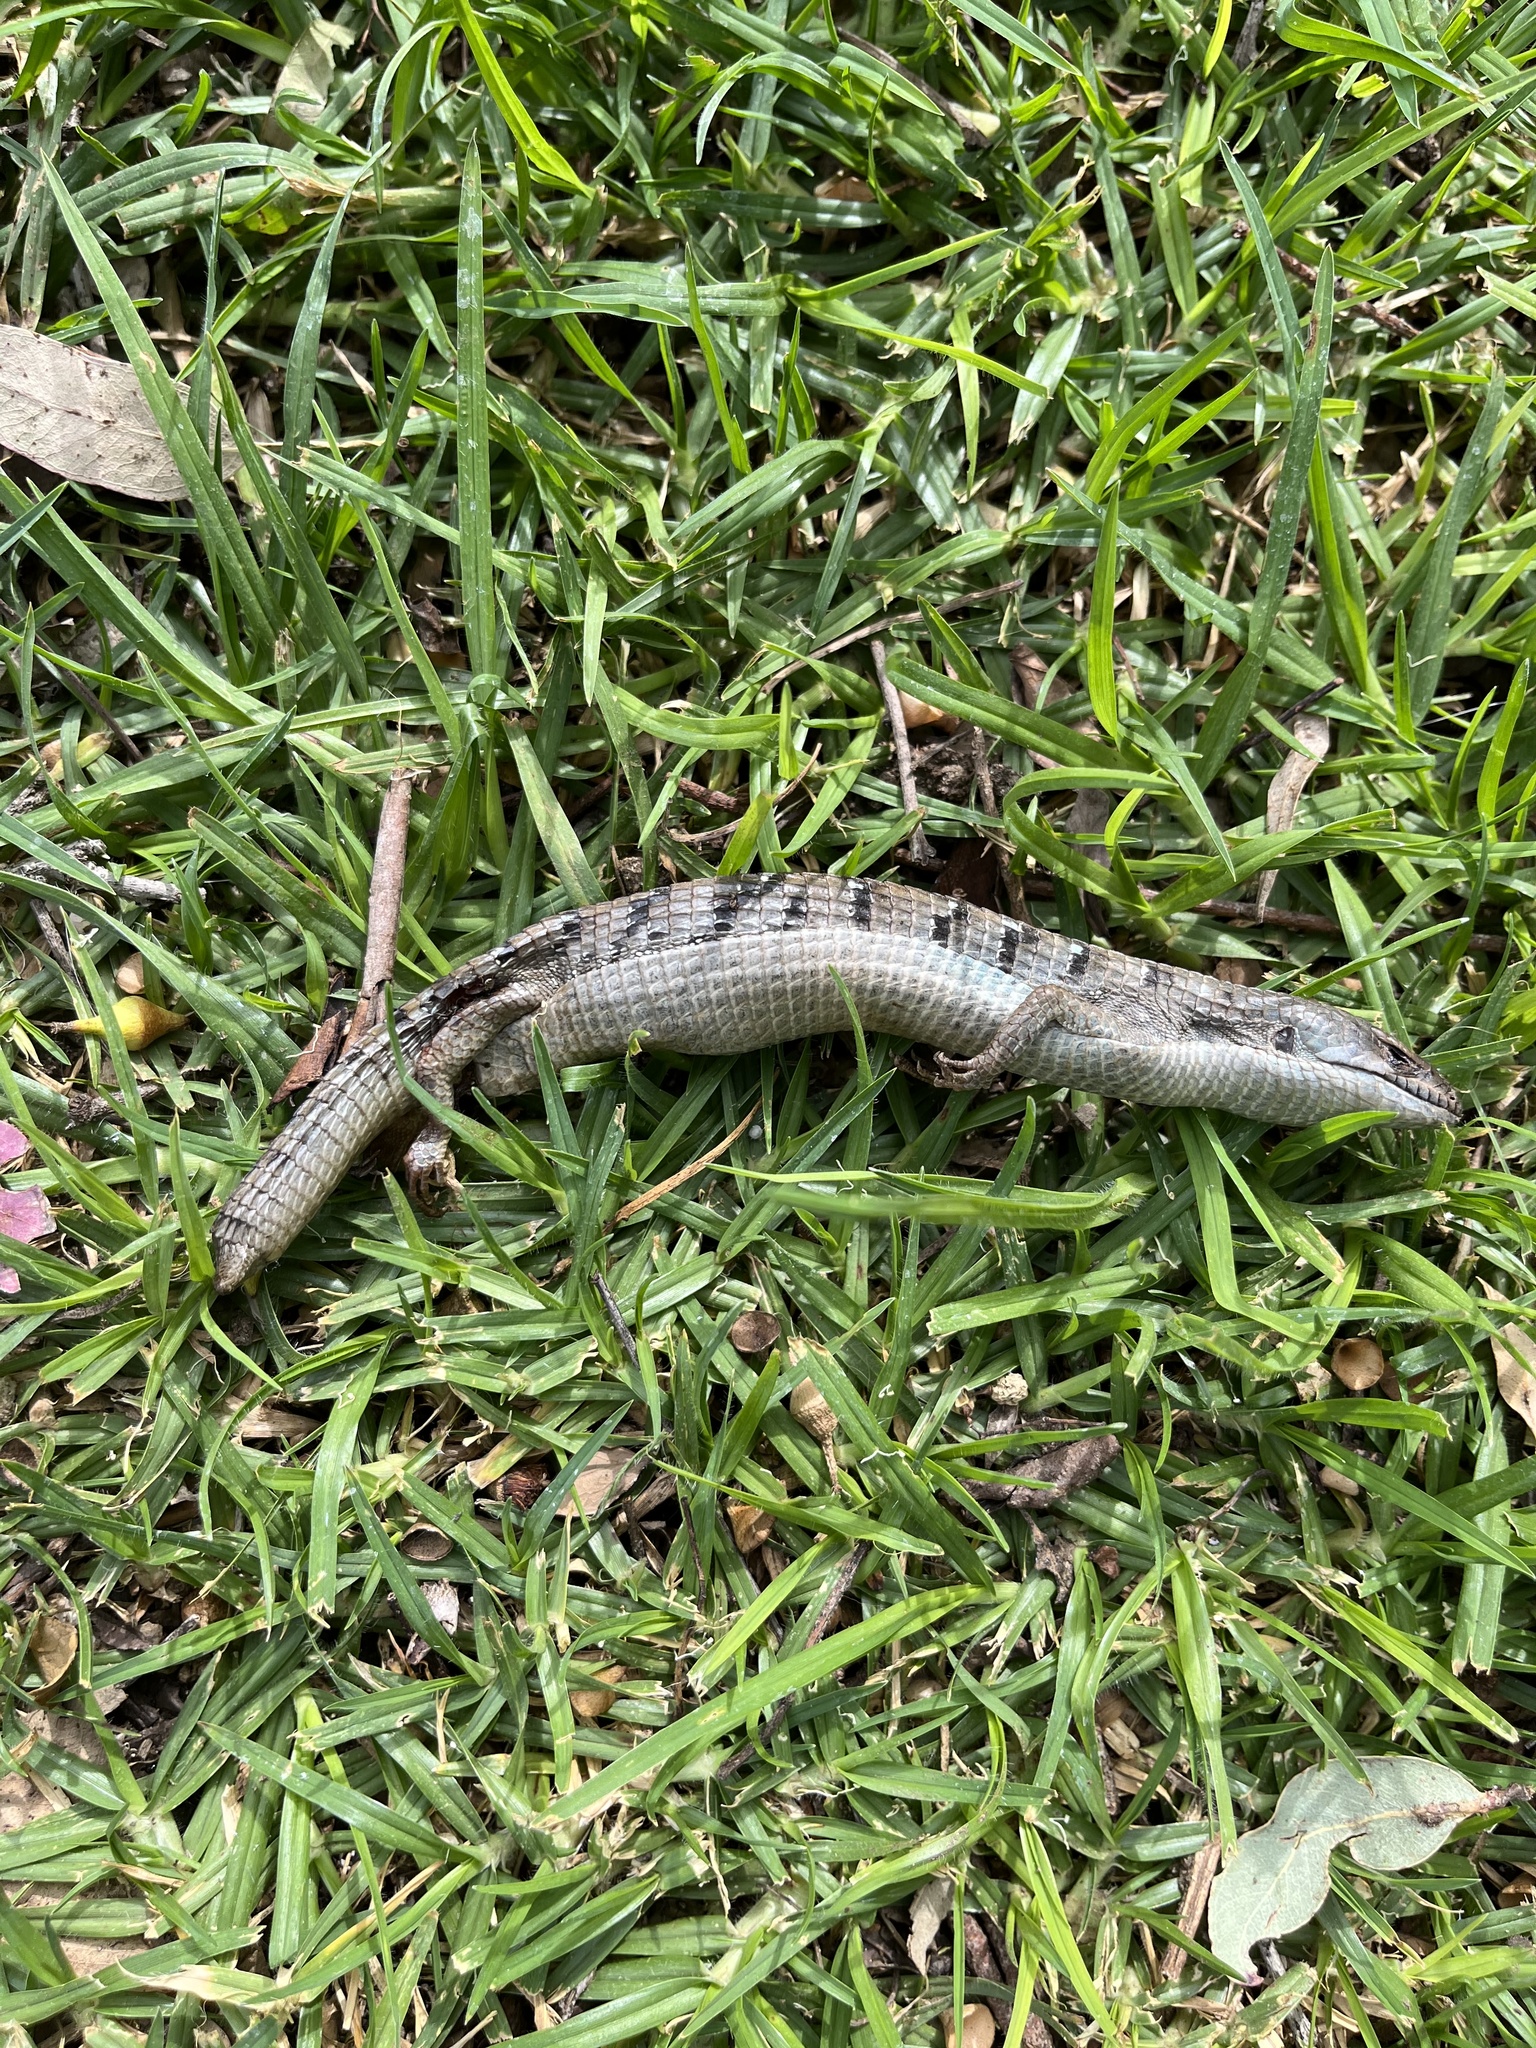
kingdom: Animalia
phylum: Chordata
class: Squamata
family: Anguidae
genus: Elgaria
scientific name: Elgaria multicarinata
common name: Southern alligator lizard
